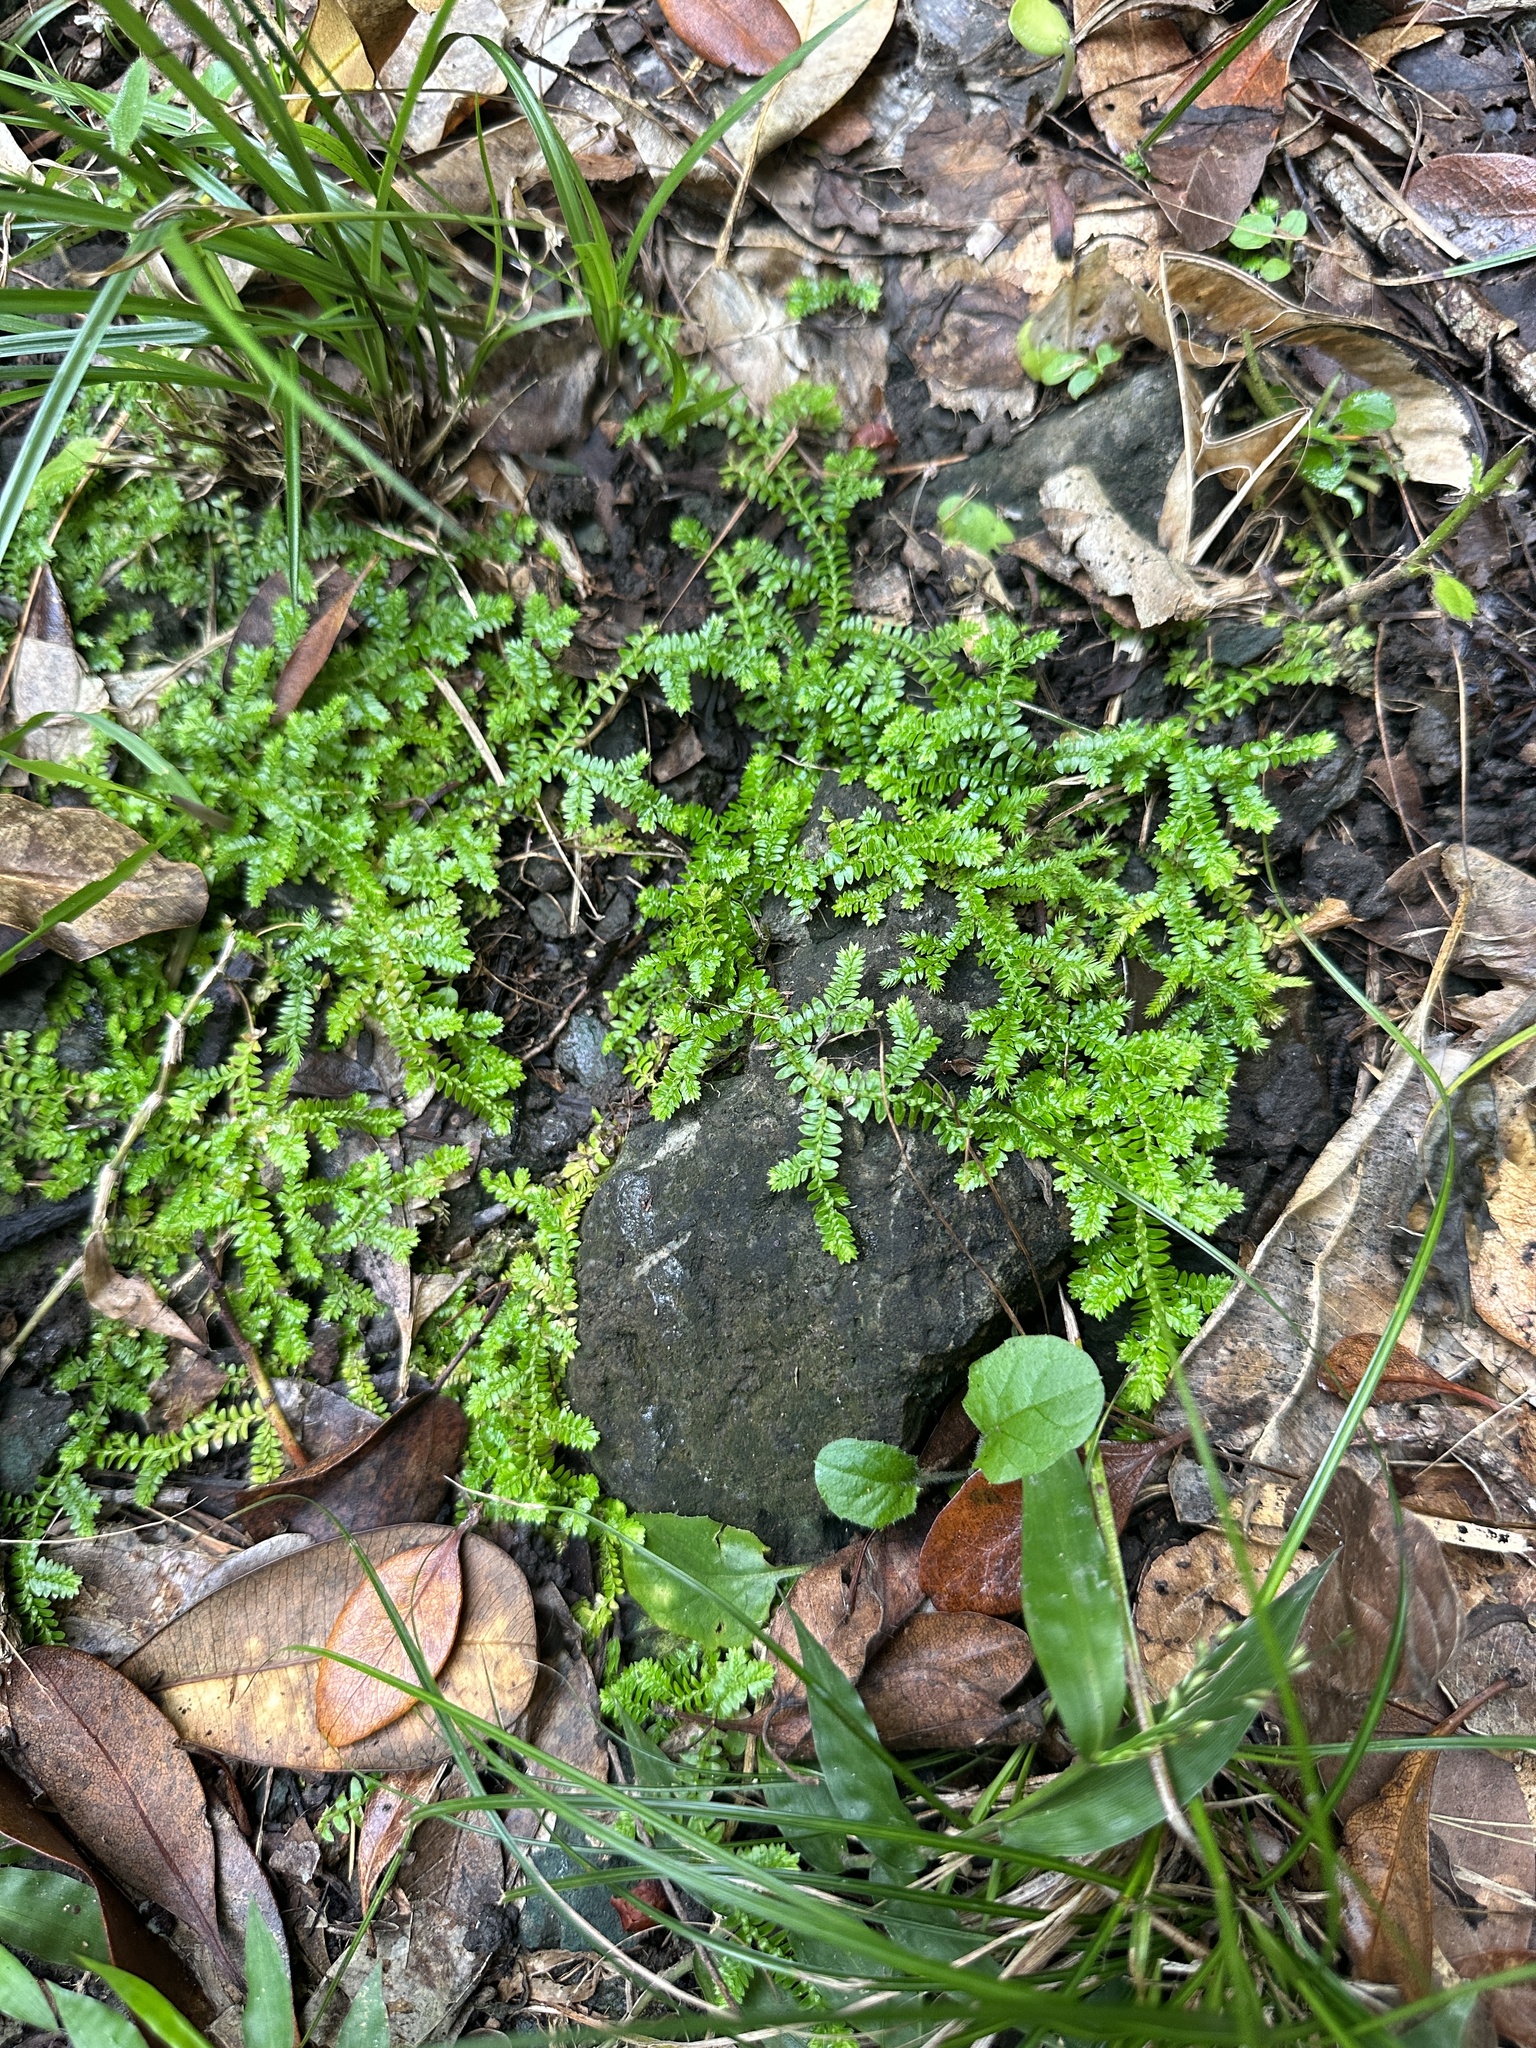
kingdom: Plantae
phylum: Tracheophyta
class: Lycopodiopsida
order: Selaginellales
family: Selaginellaceae
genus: Selaginella
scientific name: Selaginella boninensis
